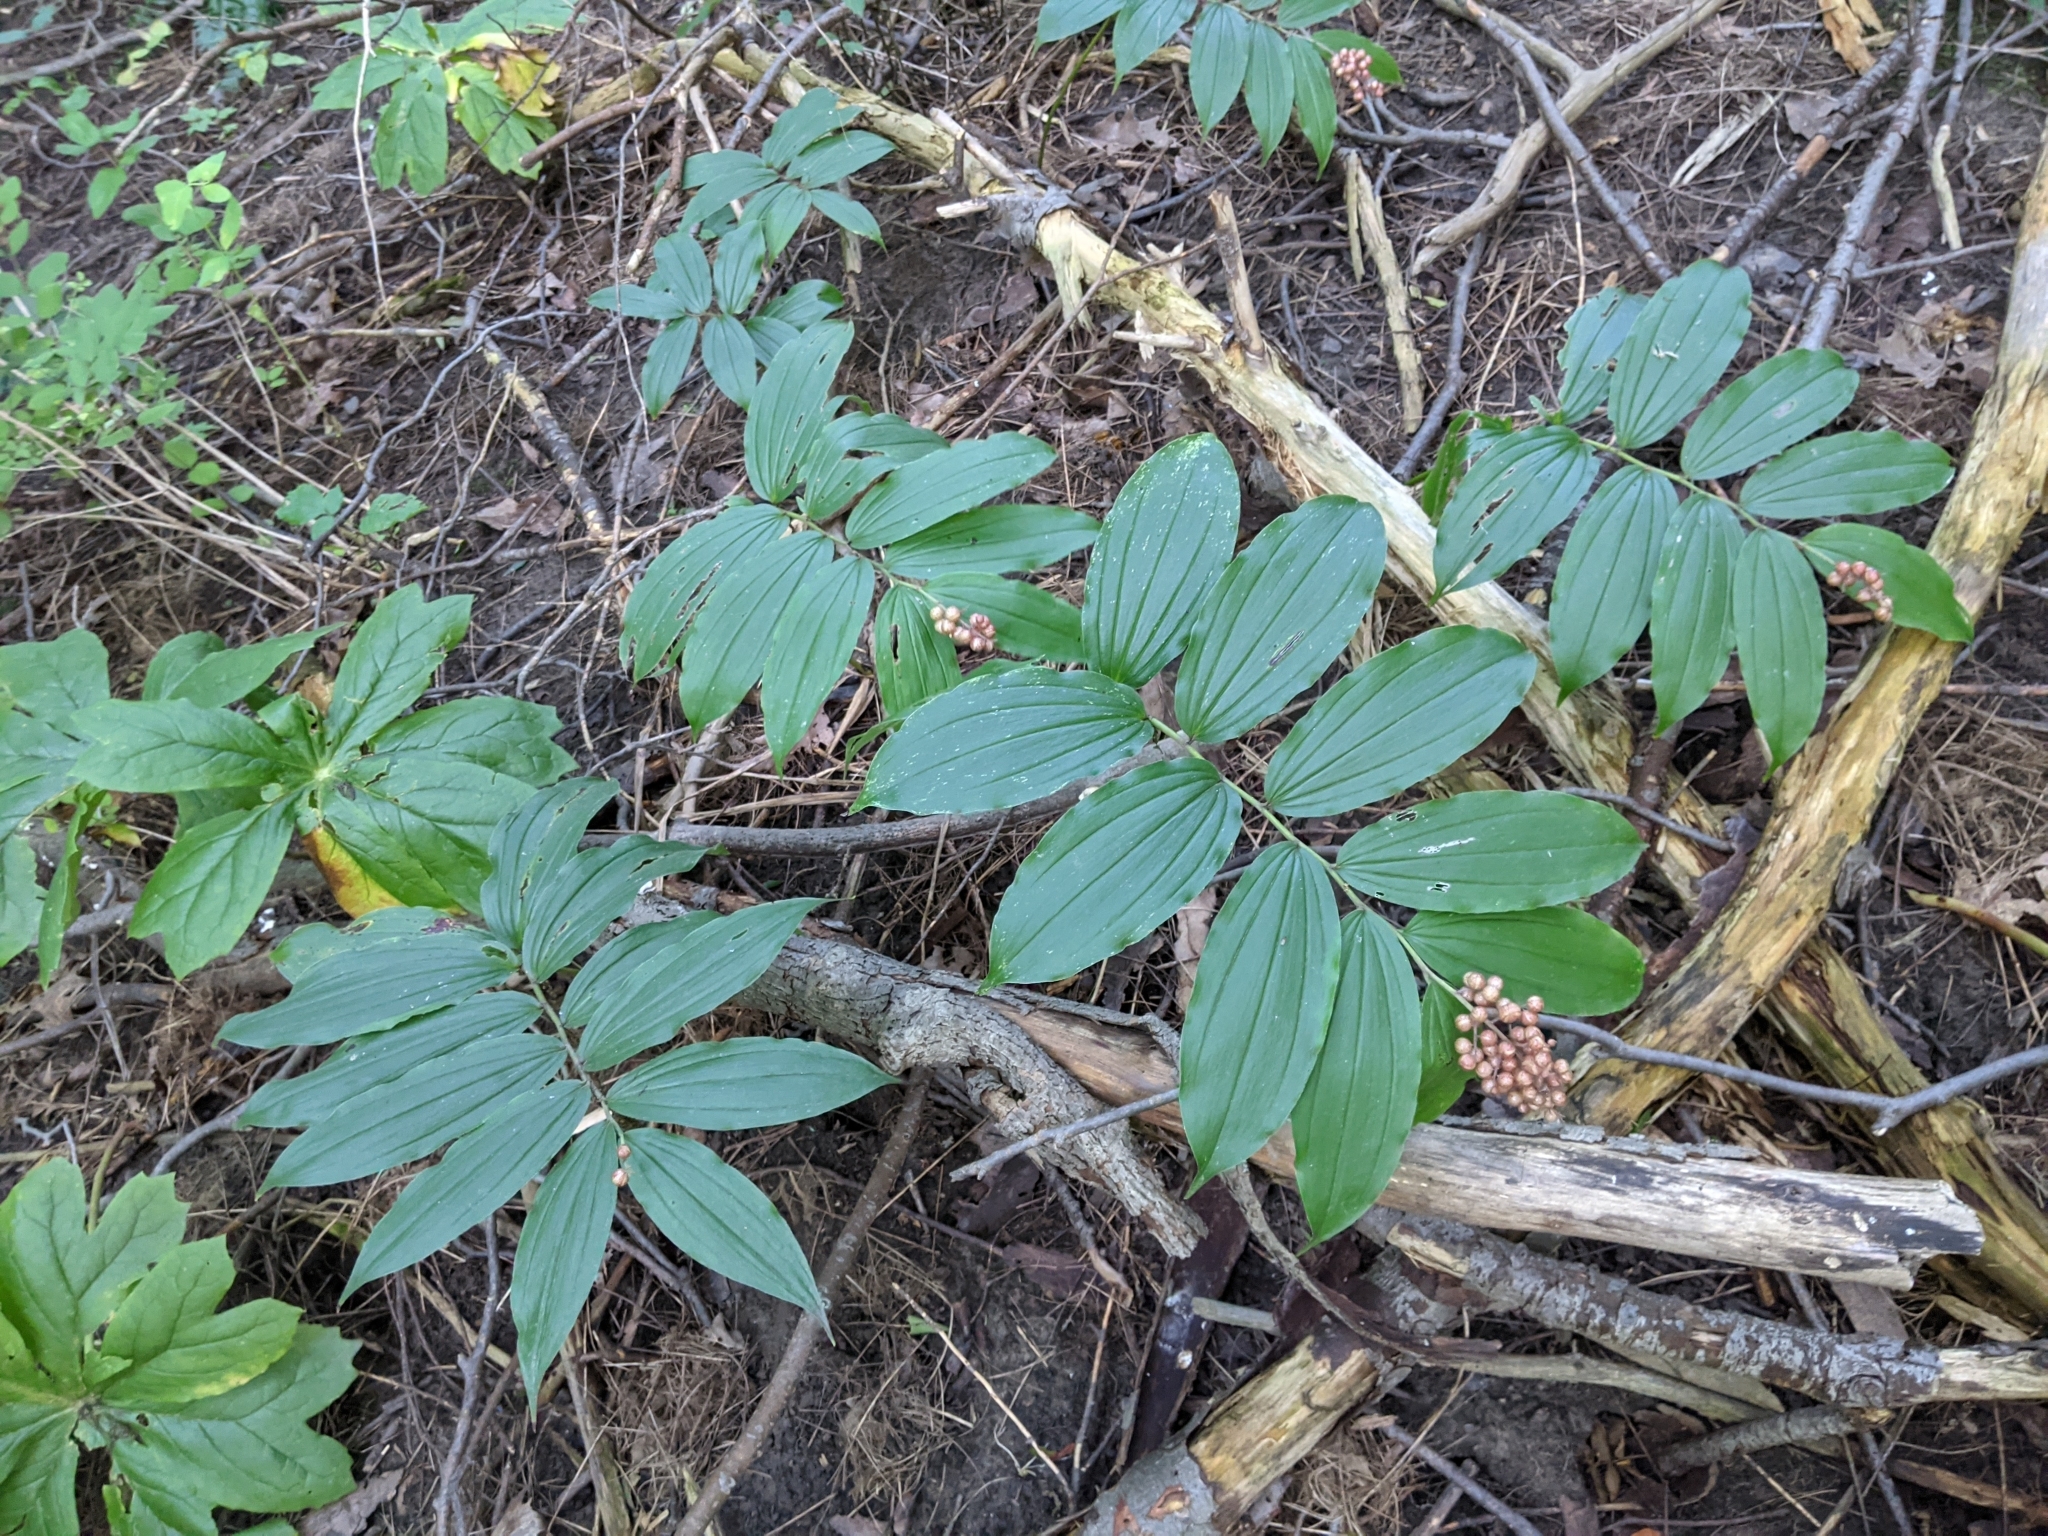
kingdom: Plantae
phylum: Tracheophyta
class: Liliopsida
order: Asparagales
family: Asparagaceae
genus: Maianthemum
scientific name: Maianthemum racemosum
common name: False spikenard
